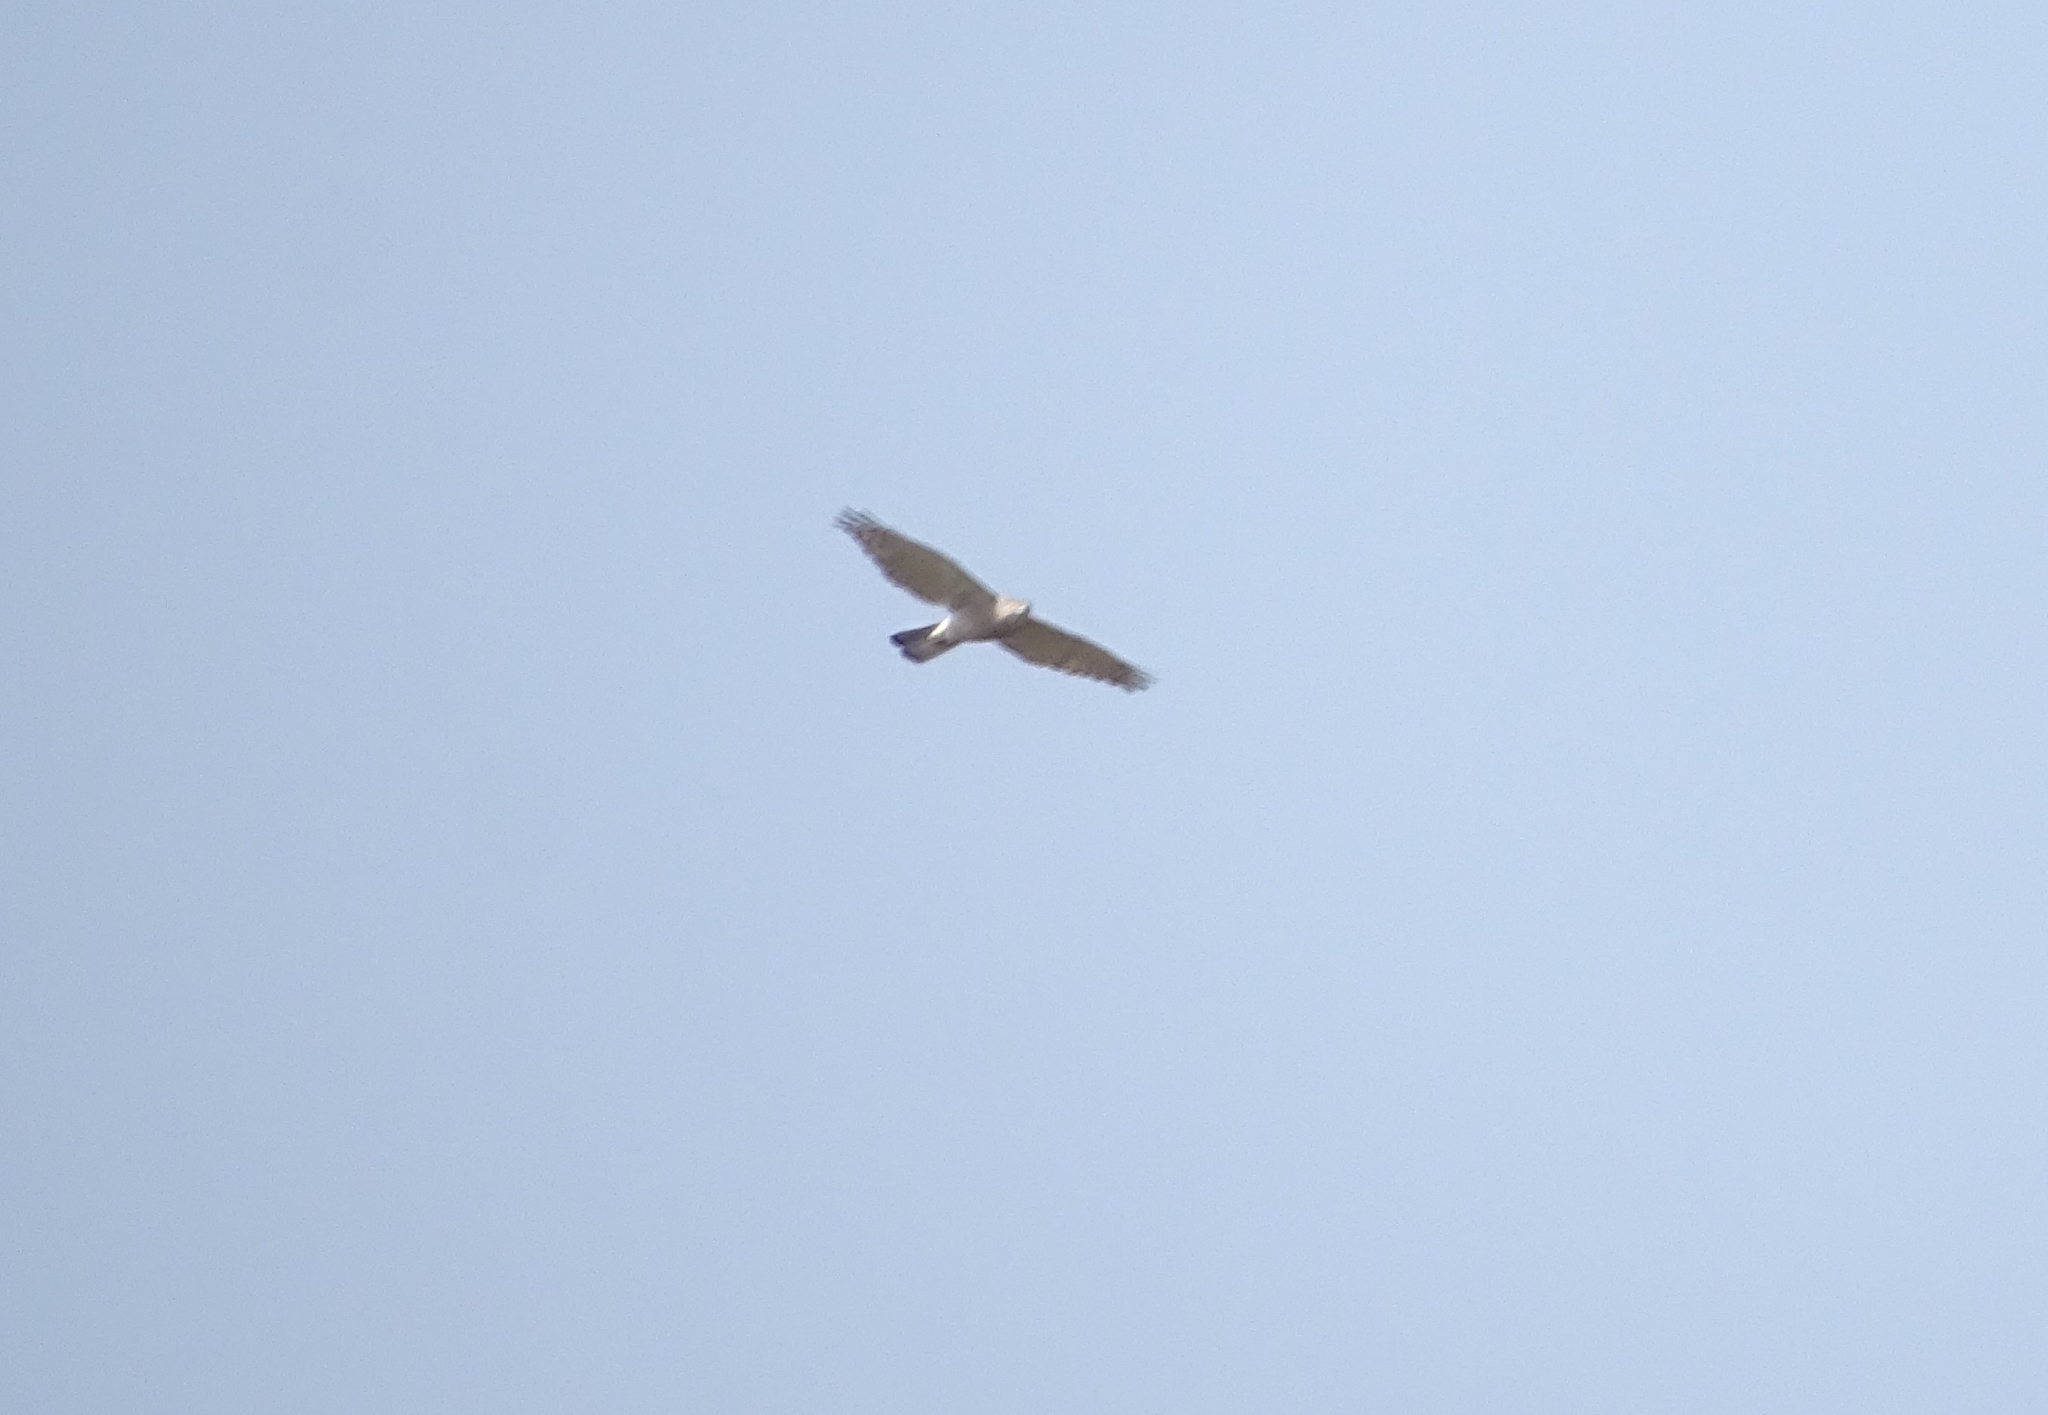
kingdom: Animalia
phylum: Chordata
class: Aves
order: Accipitriformes
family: Accipitridae
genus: Accipiter
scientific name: Accipiter badius
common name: Shikra
